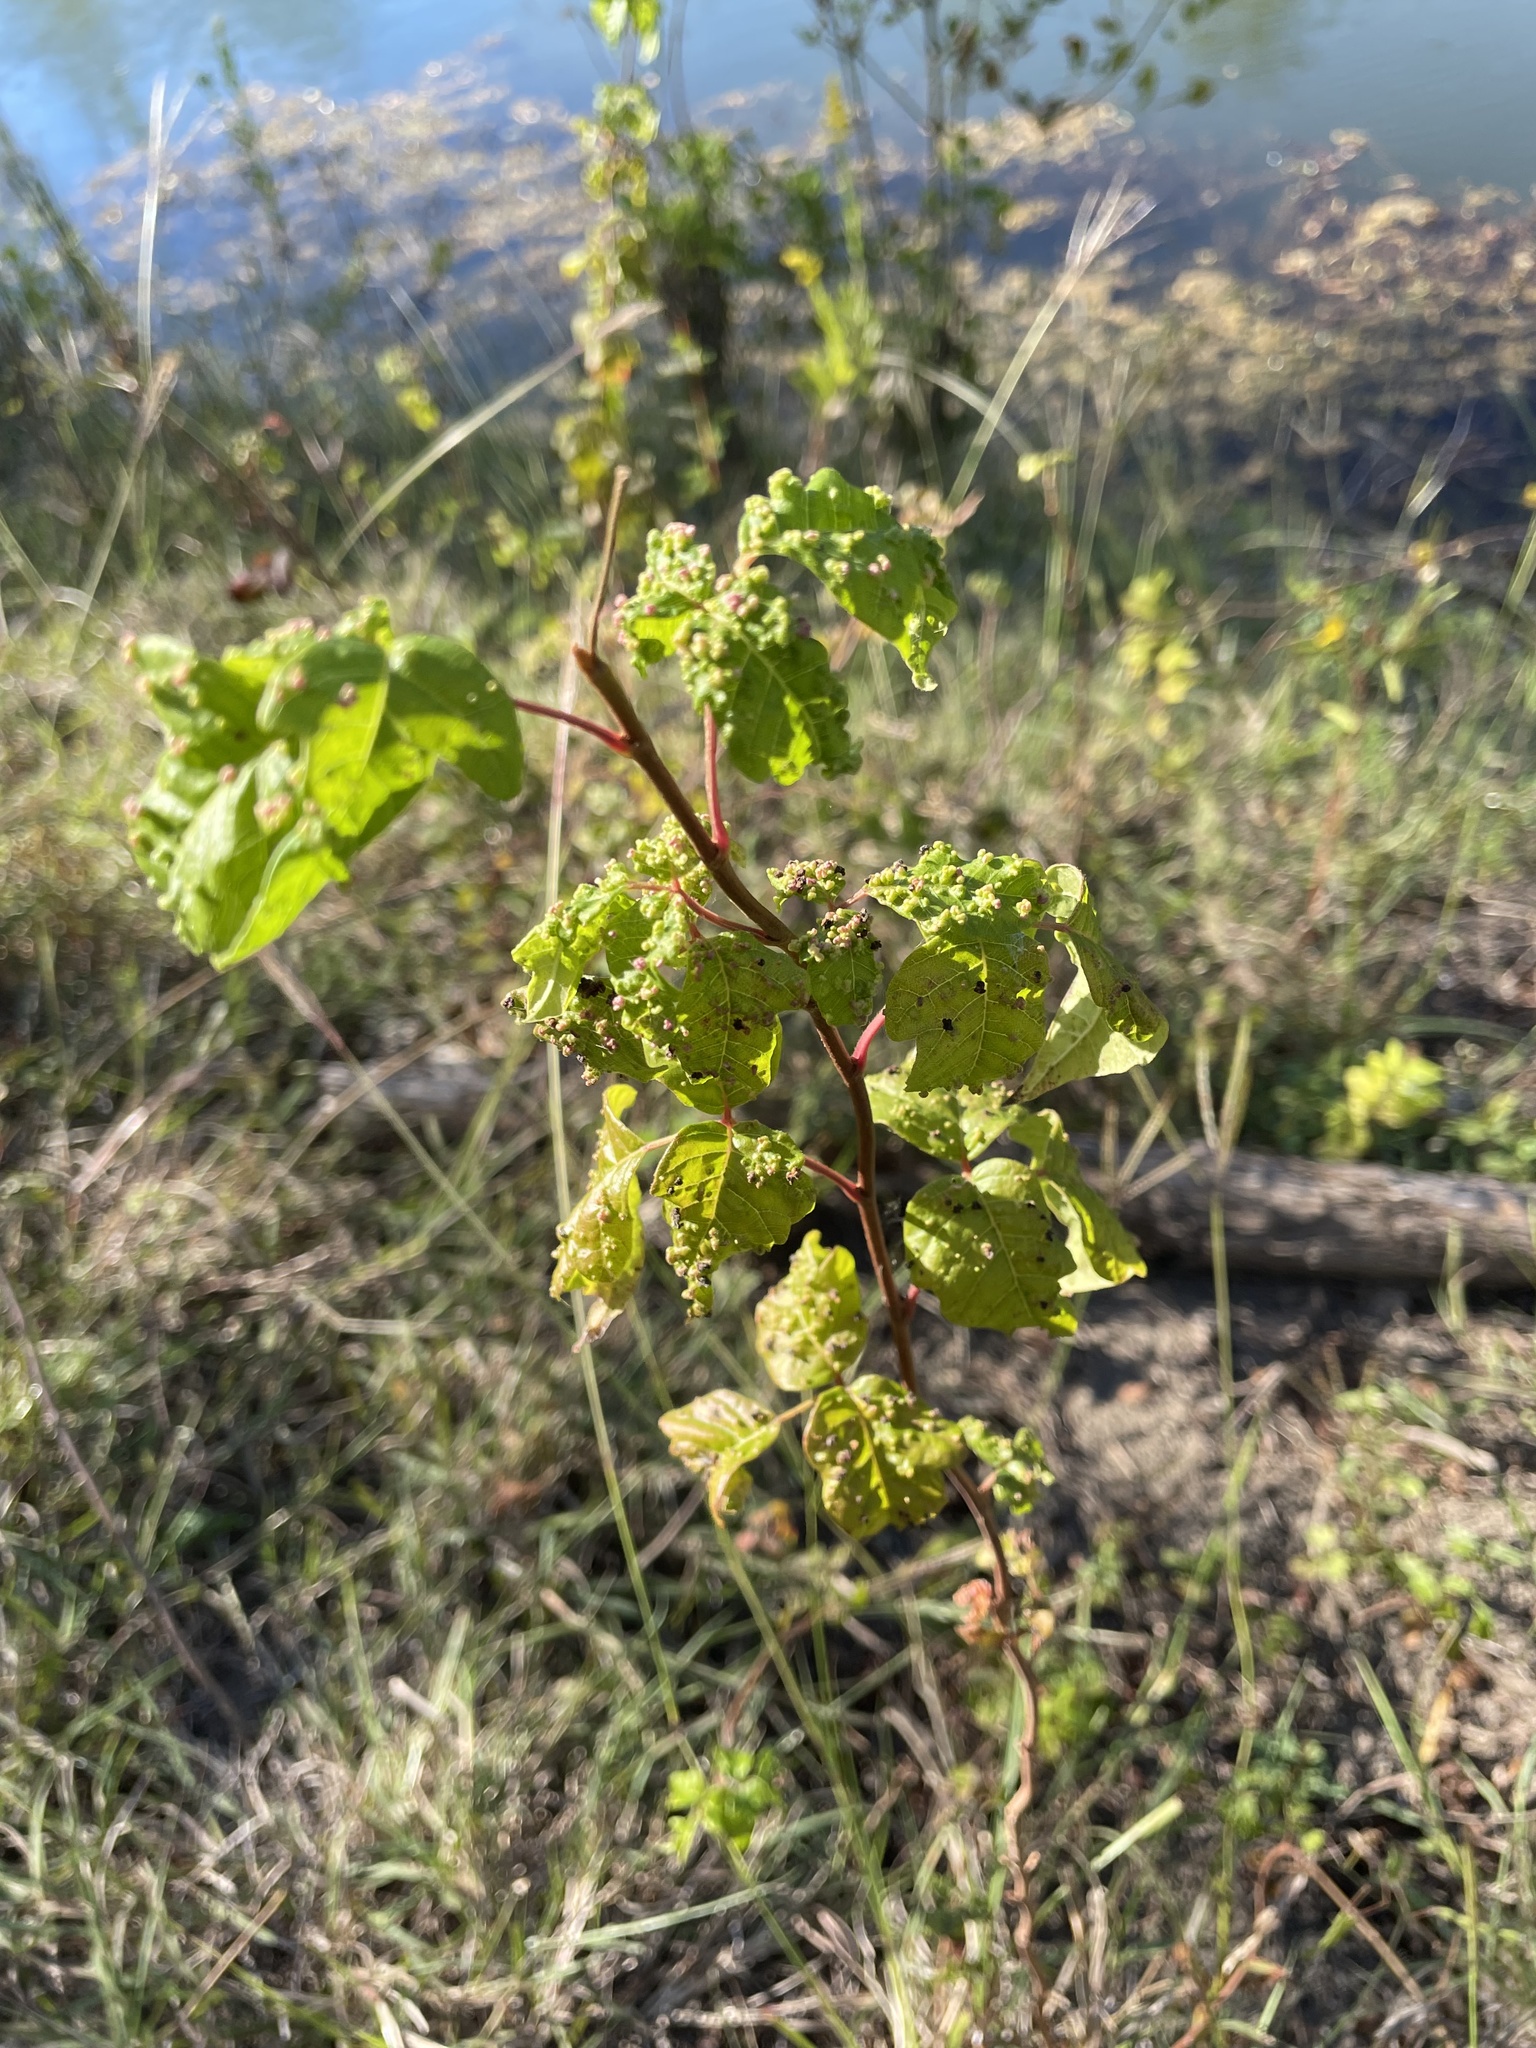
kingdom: Plantae
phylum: Tracheophyta
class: Magnoliopsida
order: Sapindales
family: Anacardiaceae
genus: Toxicodendron
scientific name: Toxicodendron radicans
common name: Poison ivy
